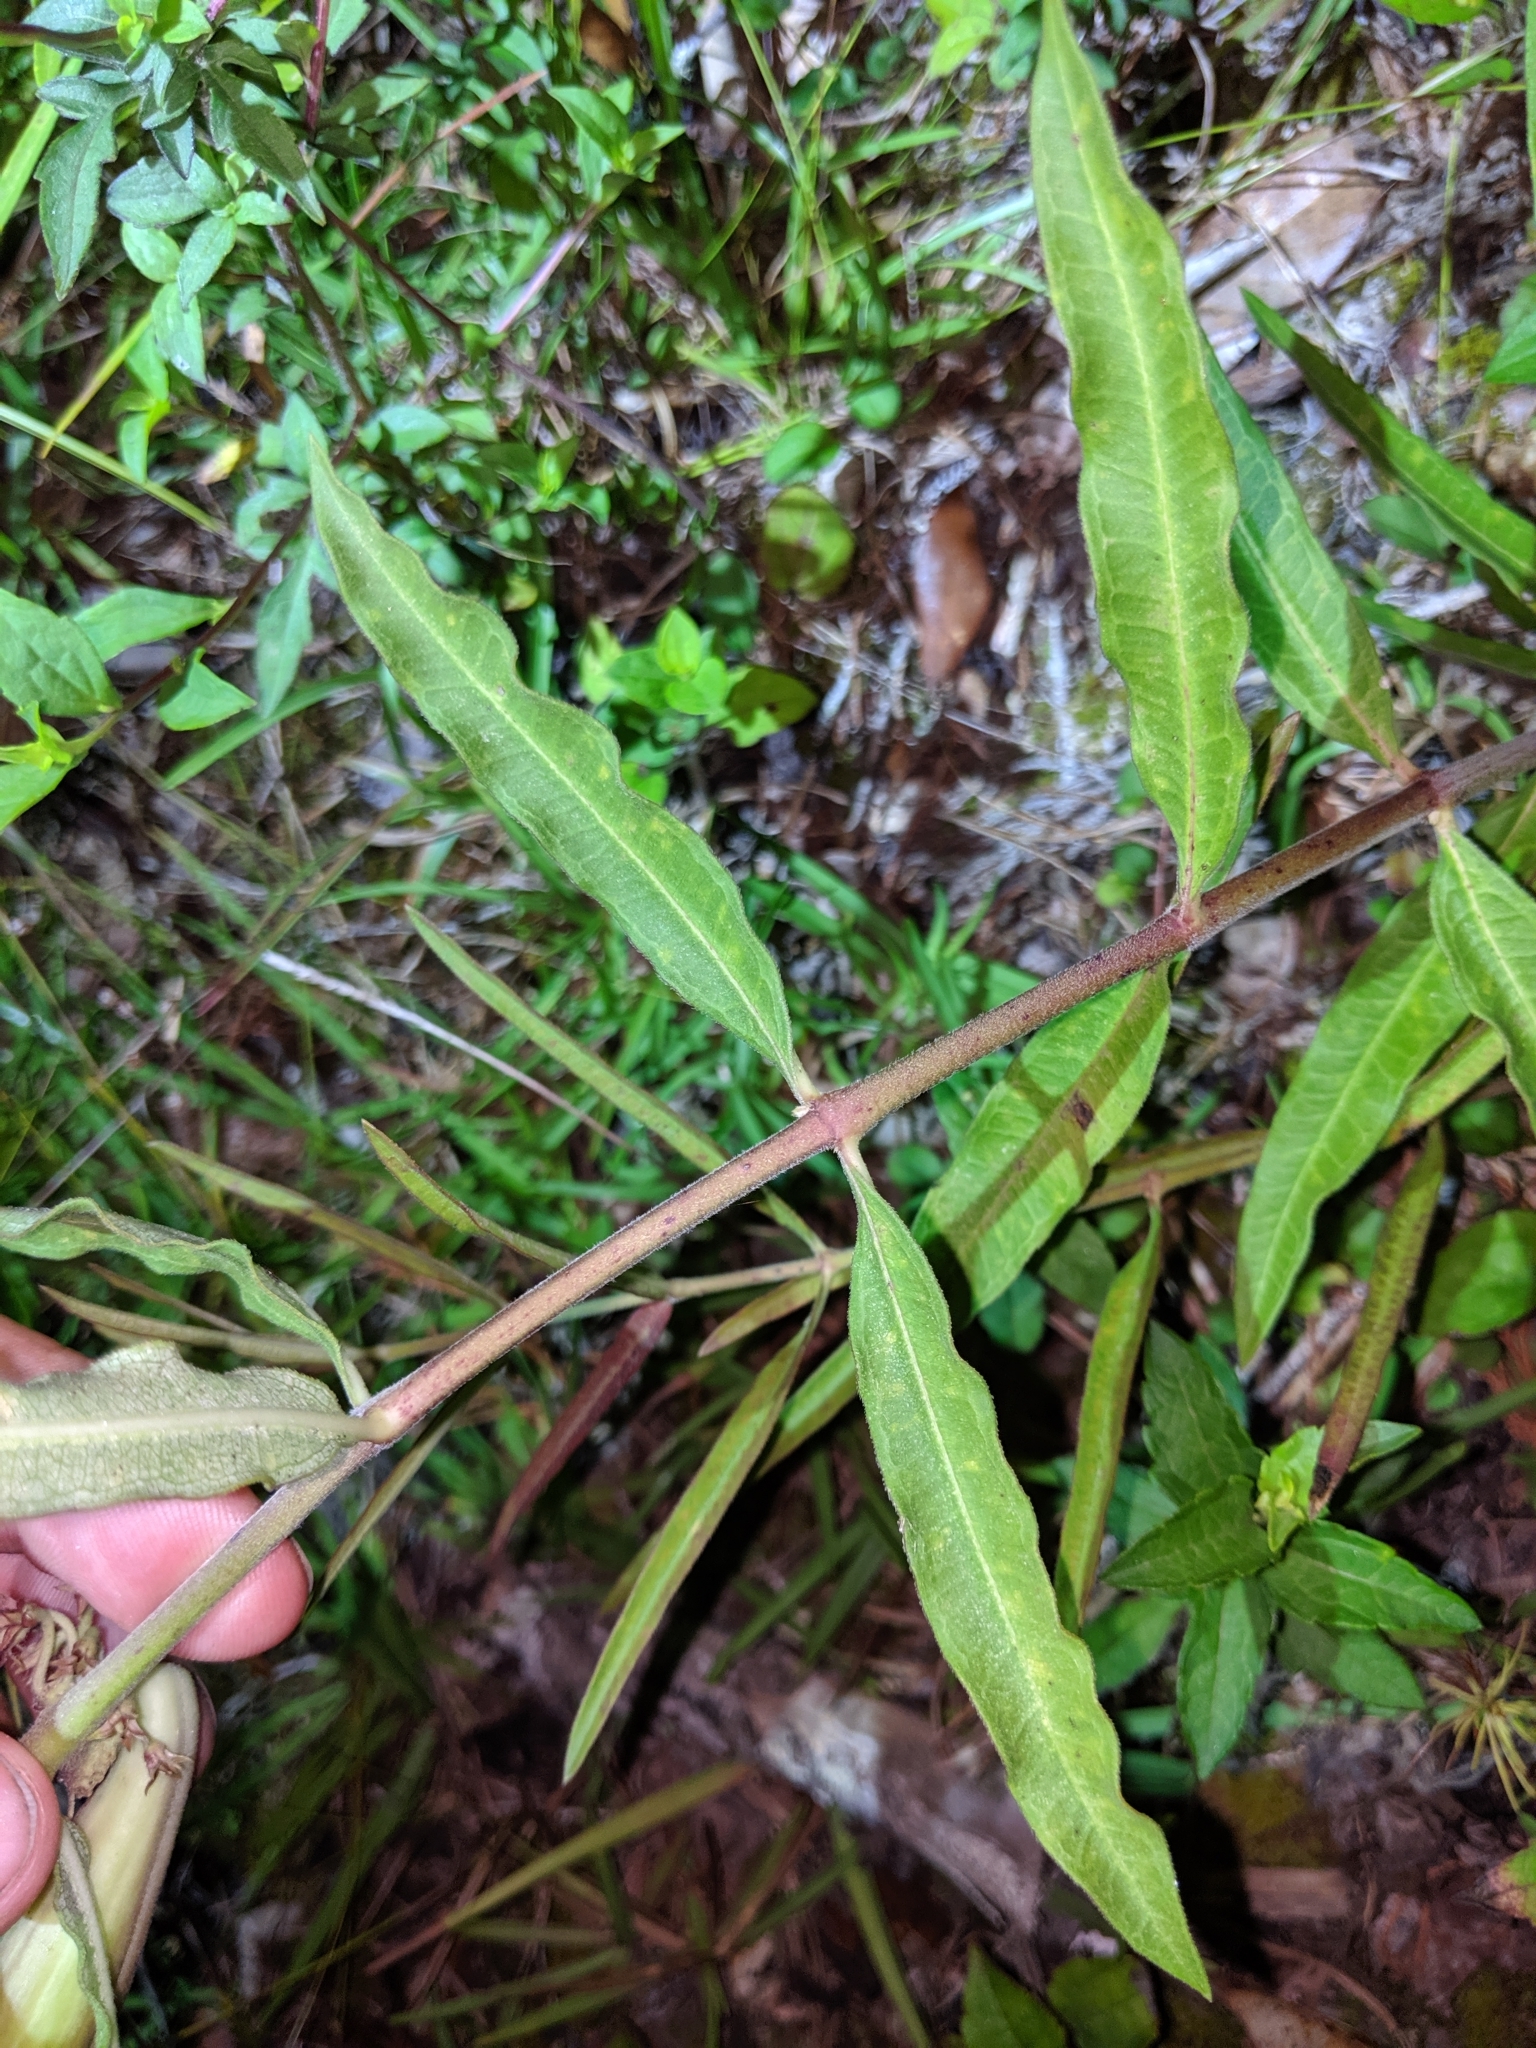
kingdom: Plantae
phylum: Tracheophyta
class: Magnoliopsida
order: Gentianales
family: Apocynaceae
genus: Asclepias
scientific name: Asclepias viridiflora
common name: Green comet milkweed
